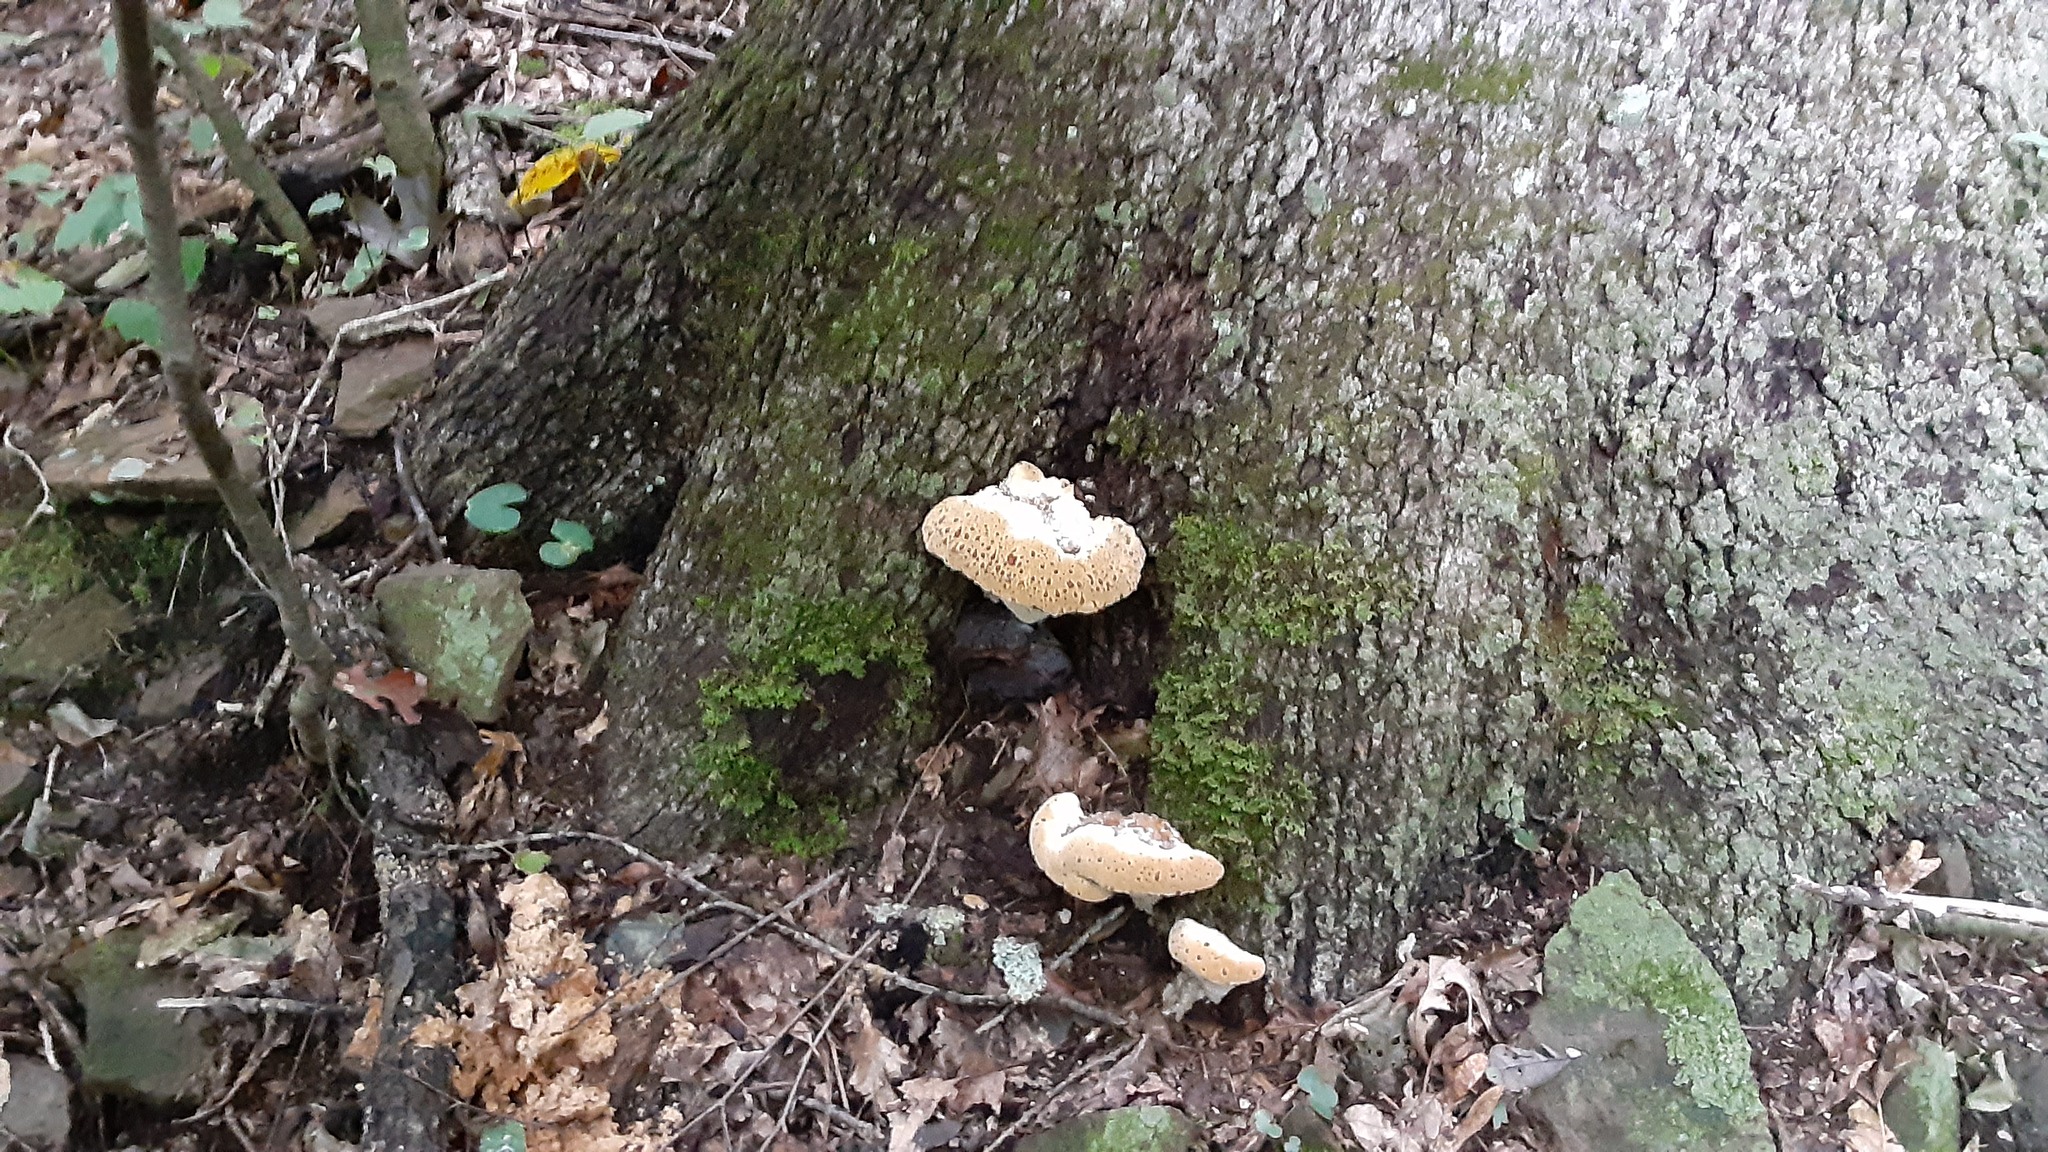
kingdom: Fungi
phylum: Basidiomycota
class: Agaricomycetes
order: Hymenochaetales
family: Hymenochaetaceae
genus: Pseudoinonotus
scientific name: Pseudoinonotus dryadeus
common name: Oak bracket
